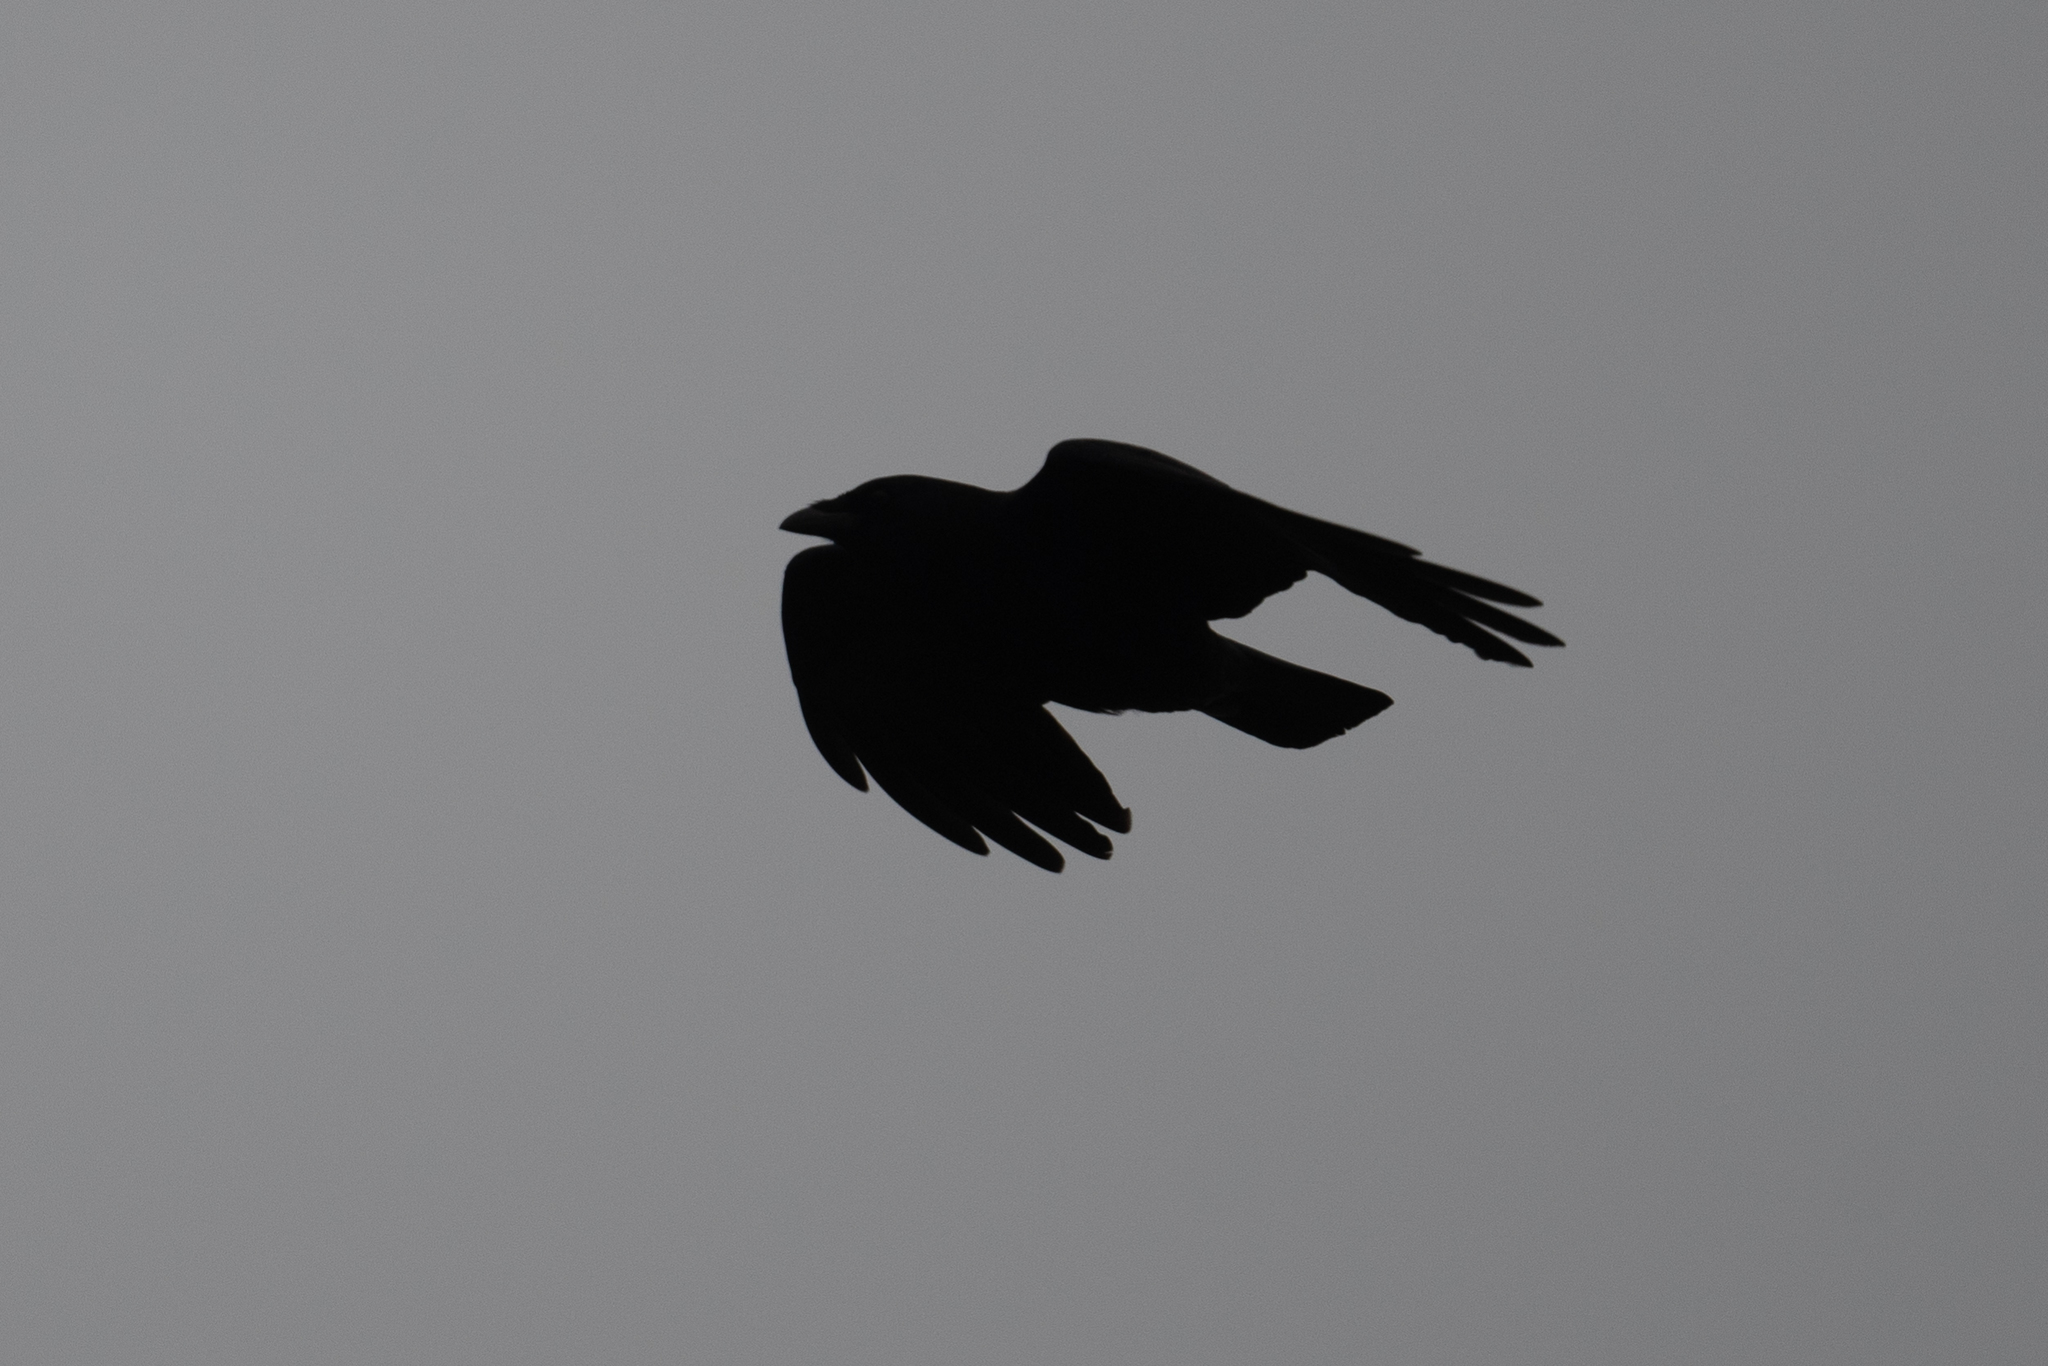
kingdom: Animalia
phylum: Chordata
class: Aves
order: Passeriformes
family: Corvidae
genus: Corvus
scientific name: Corvus brachyrhynchos
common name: American crow
